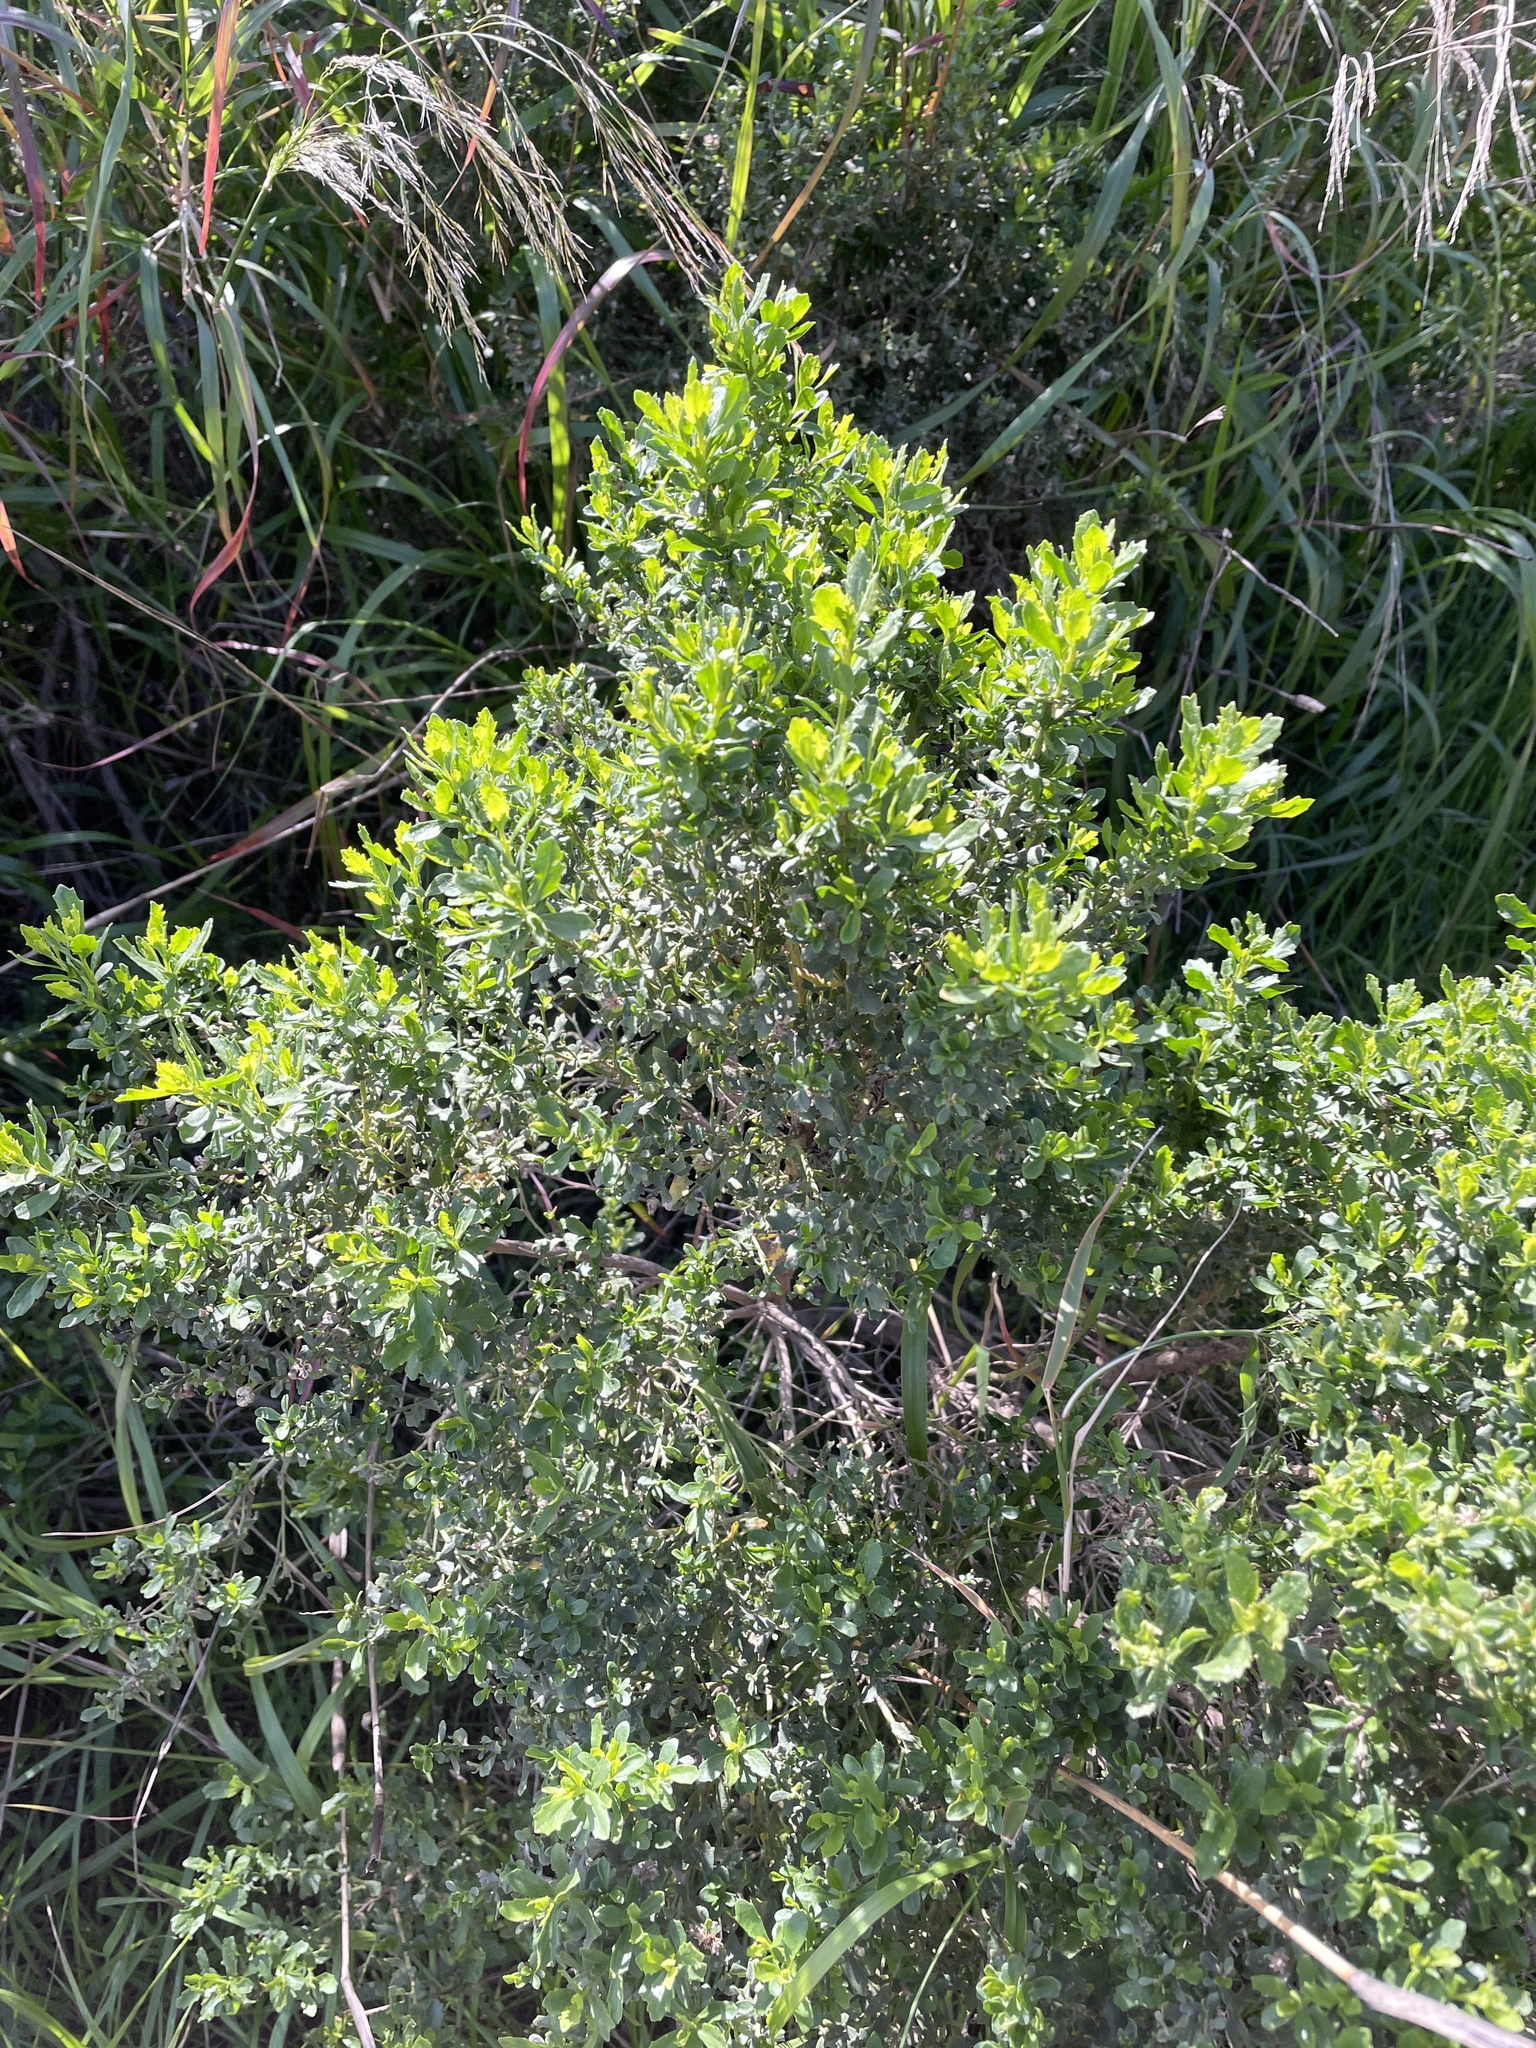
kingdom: Plantae
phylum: Tracheophyta
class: Magnoliopsida
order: Asterales
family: Asteraceae
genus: Baccharis
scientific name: Baccharis pilularis
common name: Coyotebrush
